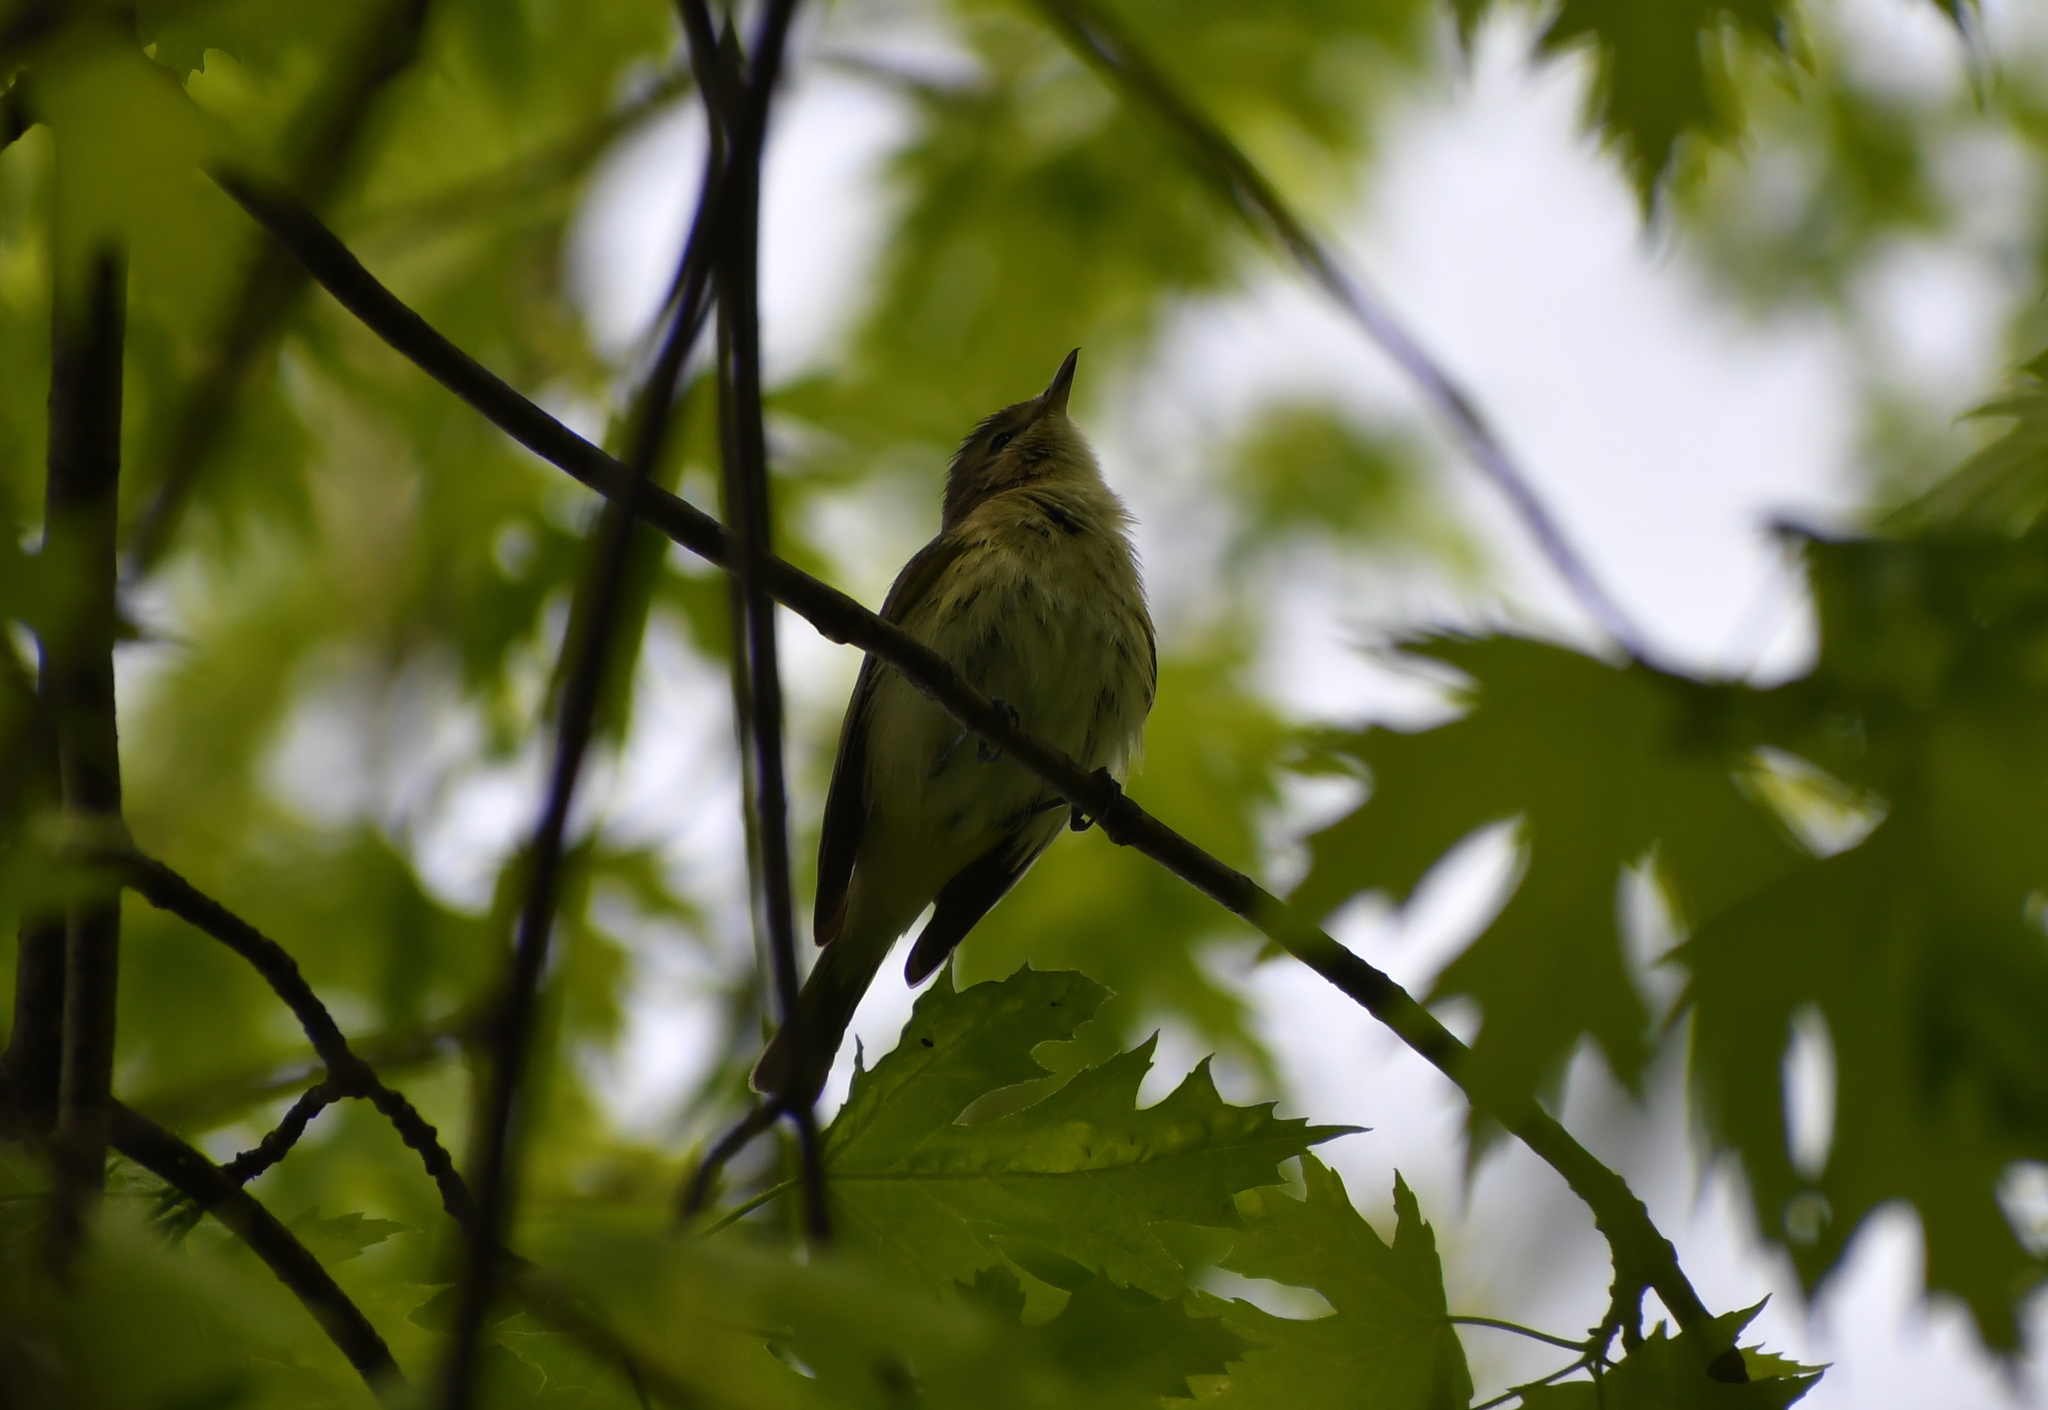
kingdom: Animalia
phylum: Chordata
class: Aves
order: Passeriformes
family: Vireonidae
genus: Vireo
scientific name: Vireo gilvus
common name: Warbling vireo
